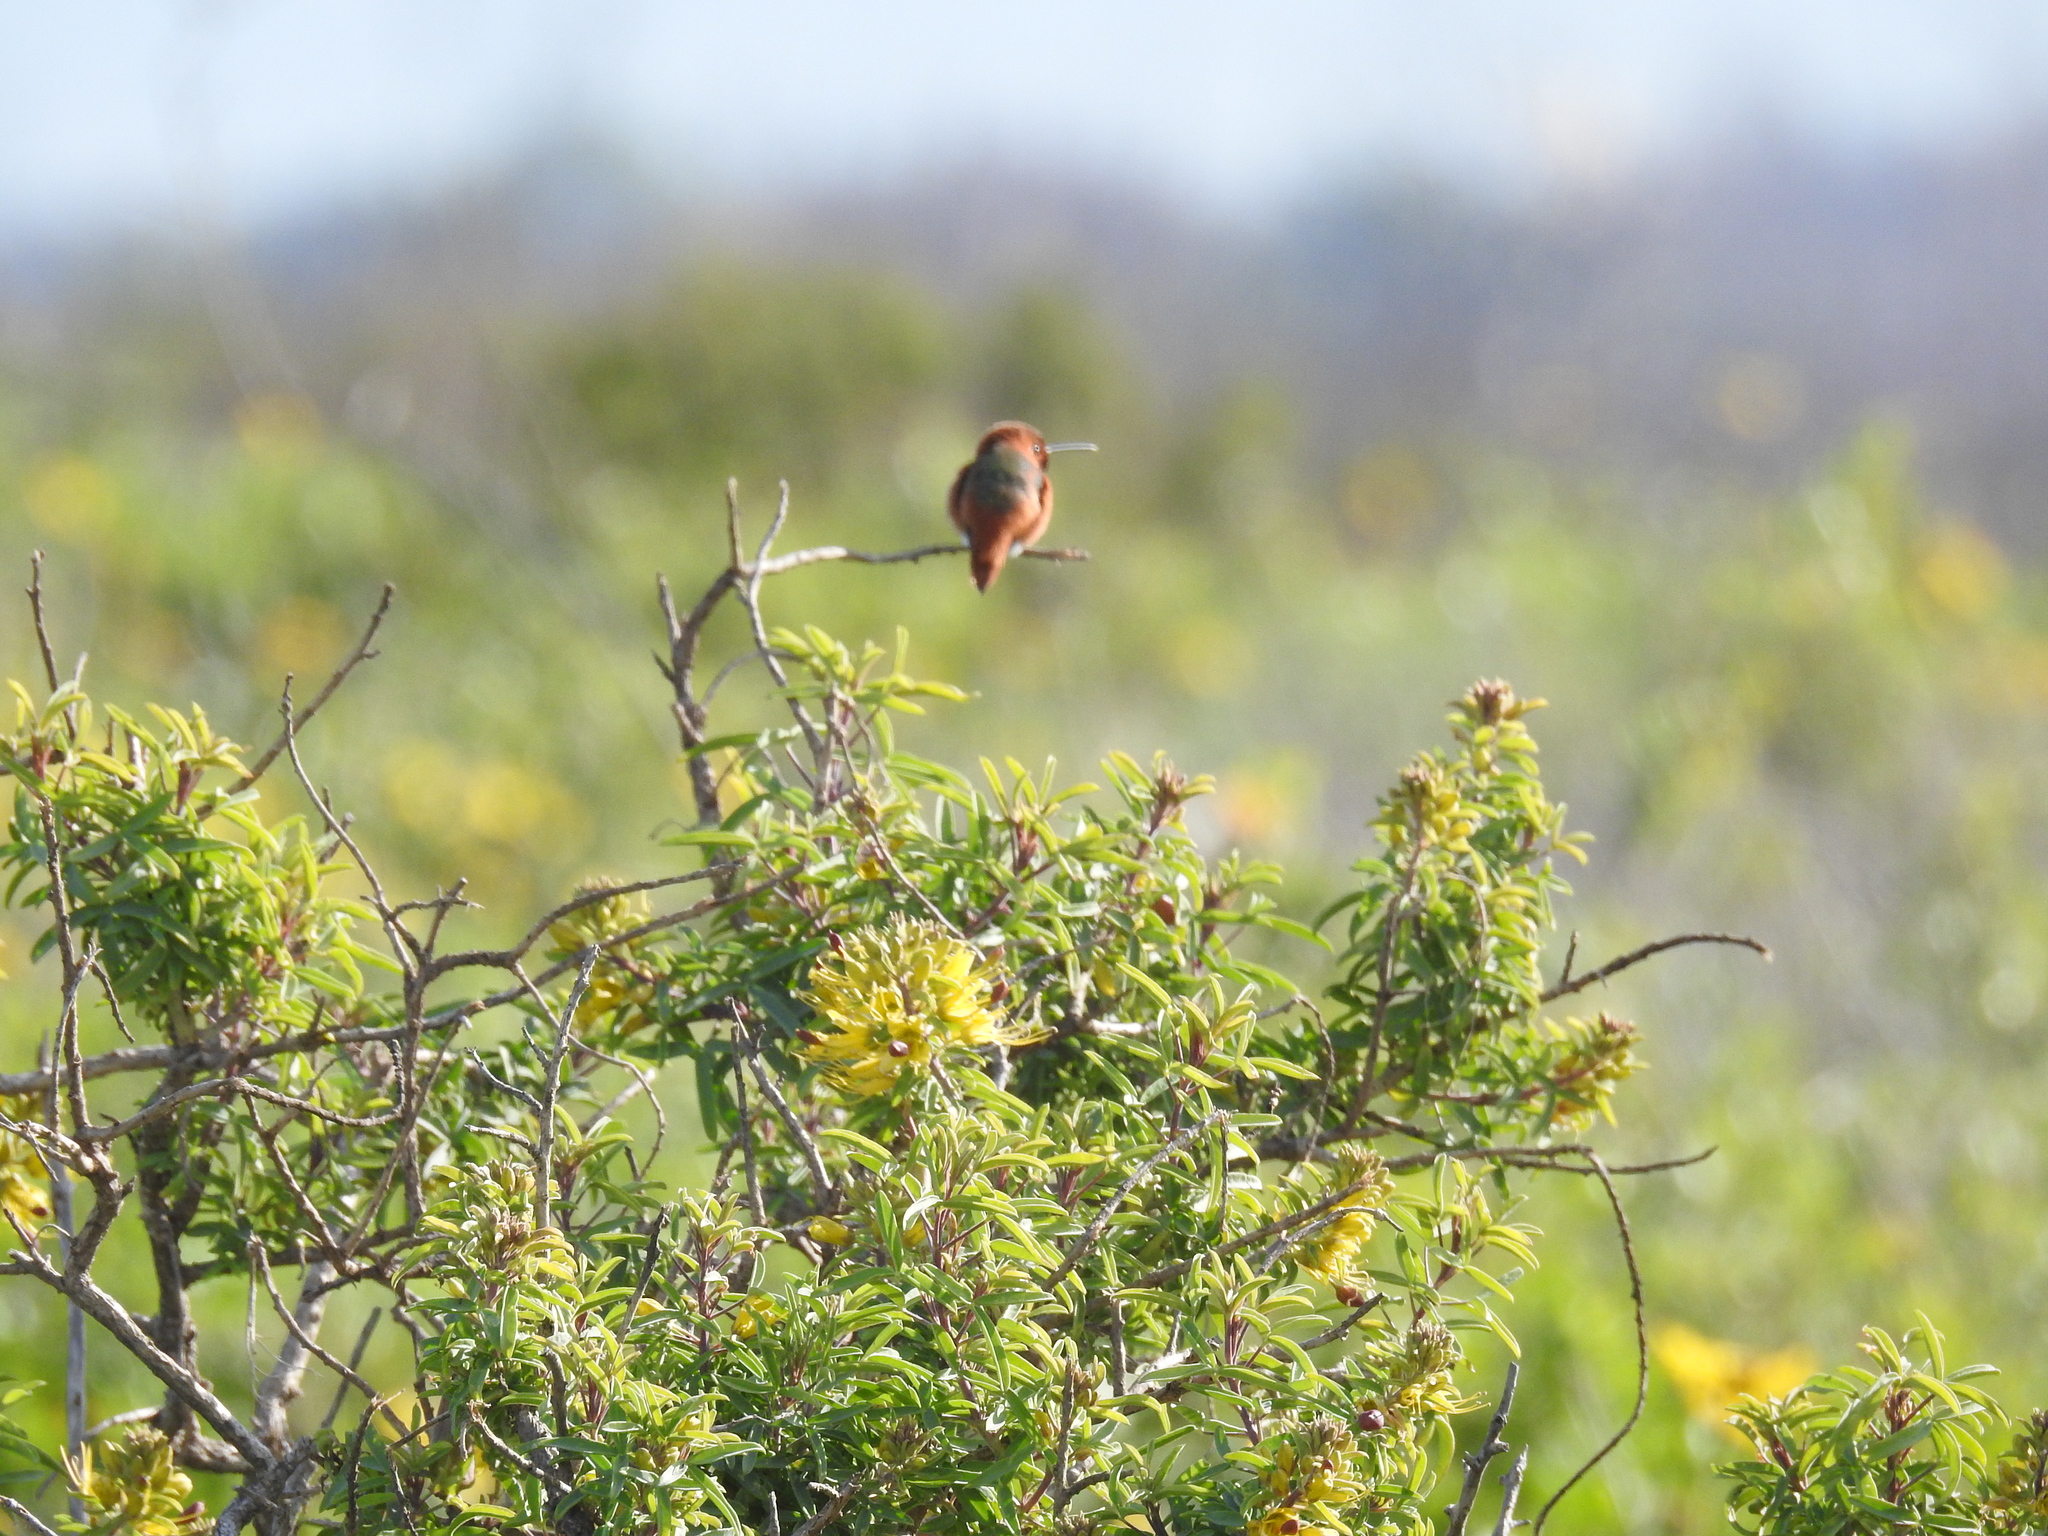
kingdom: Animalia
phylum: Chordata
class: Aves
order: Apodiformes
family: Trochilidae
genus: Selasphorus
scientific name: Selasphorus sasin
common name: Allen's hummingbird
